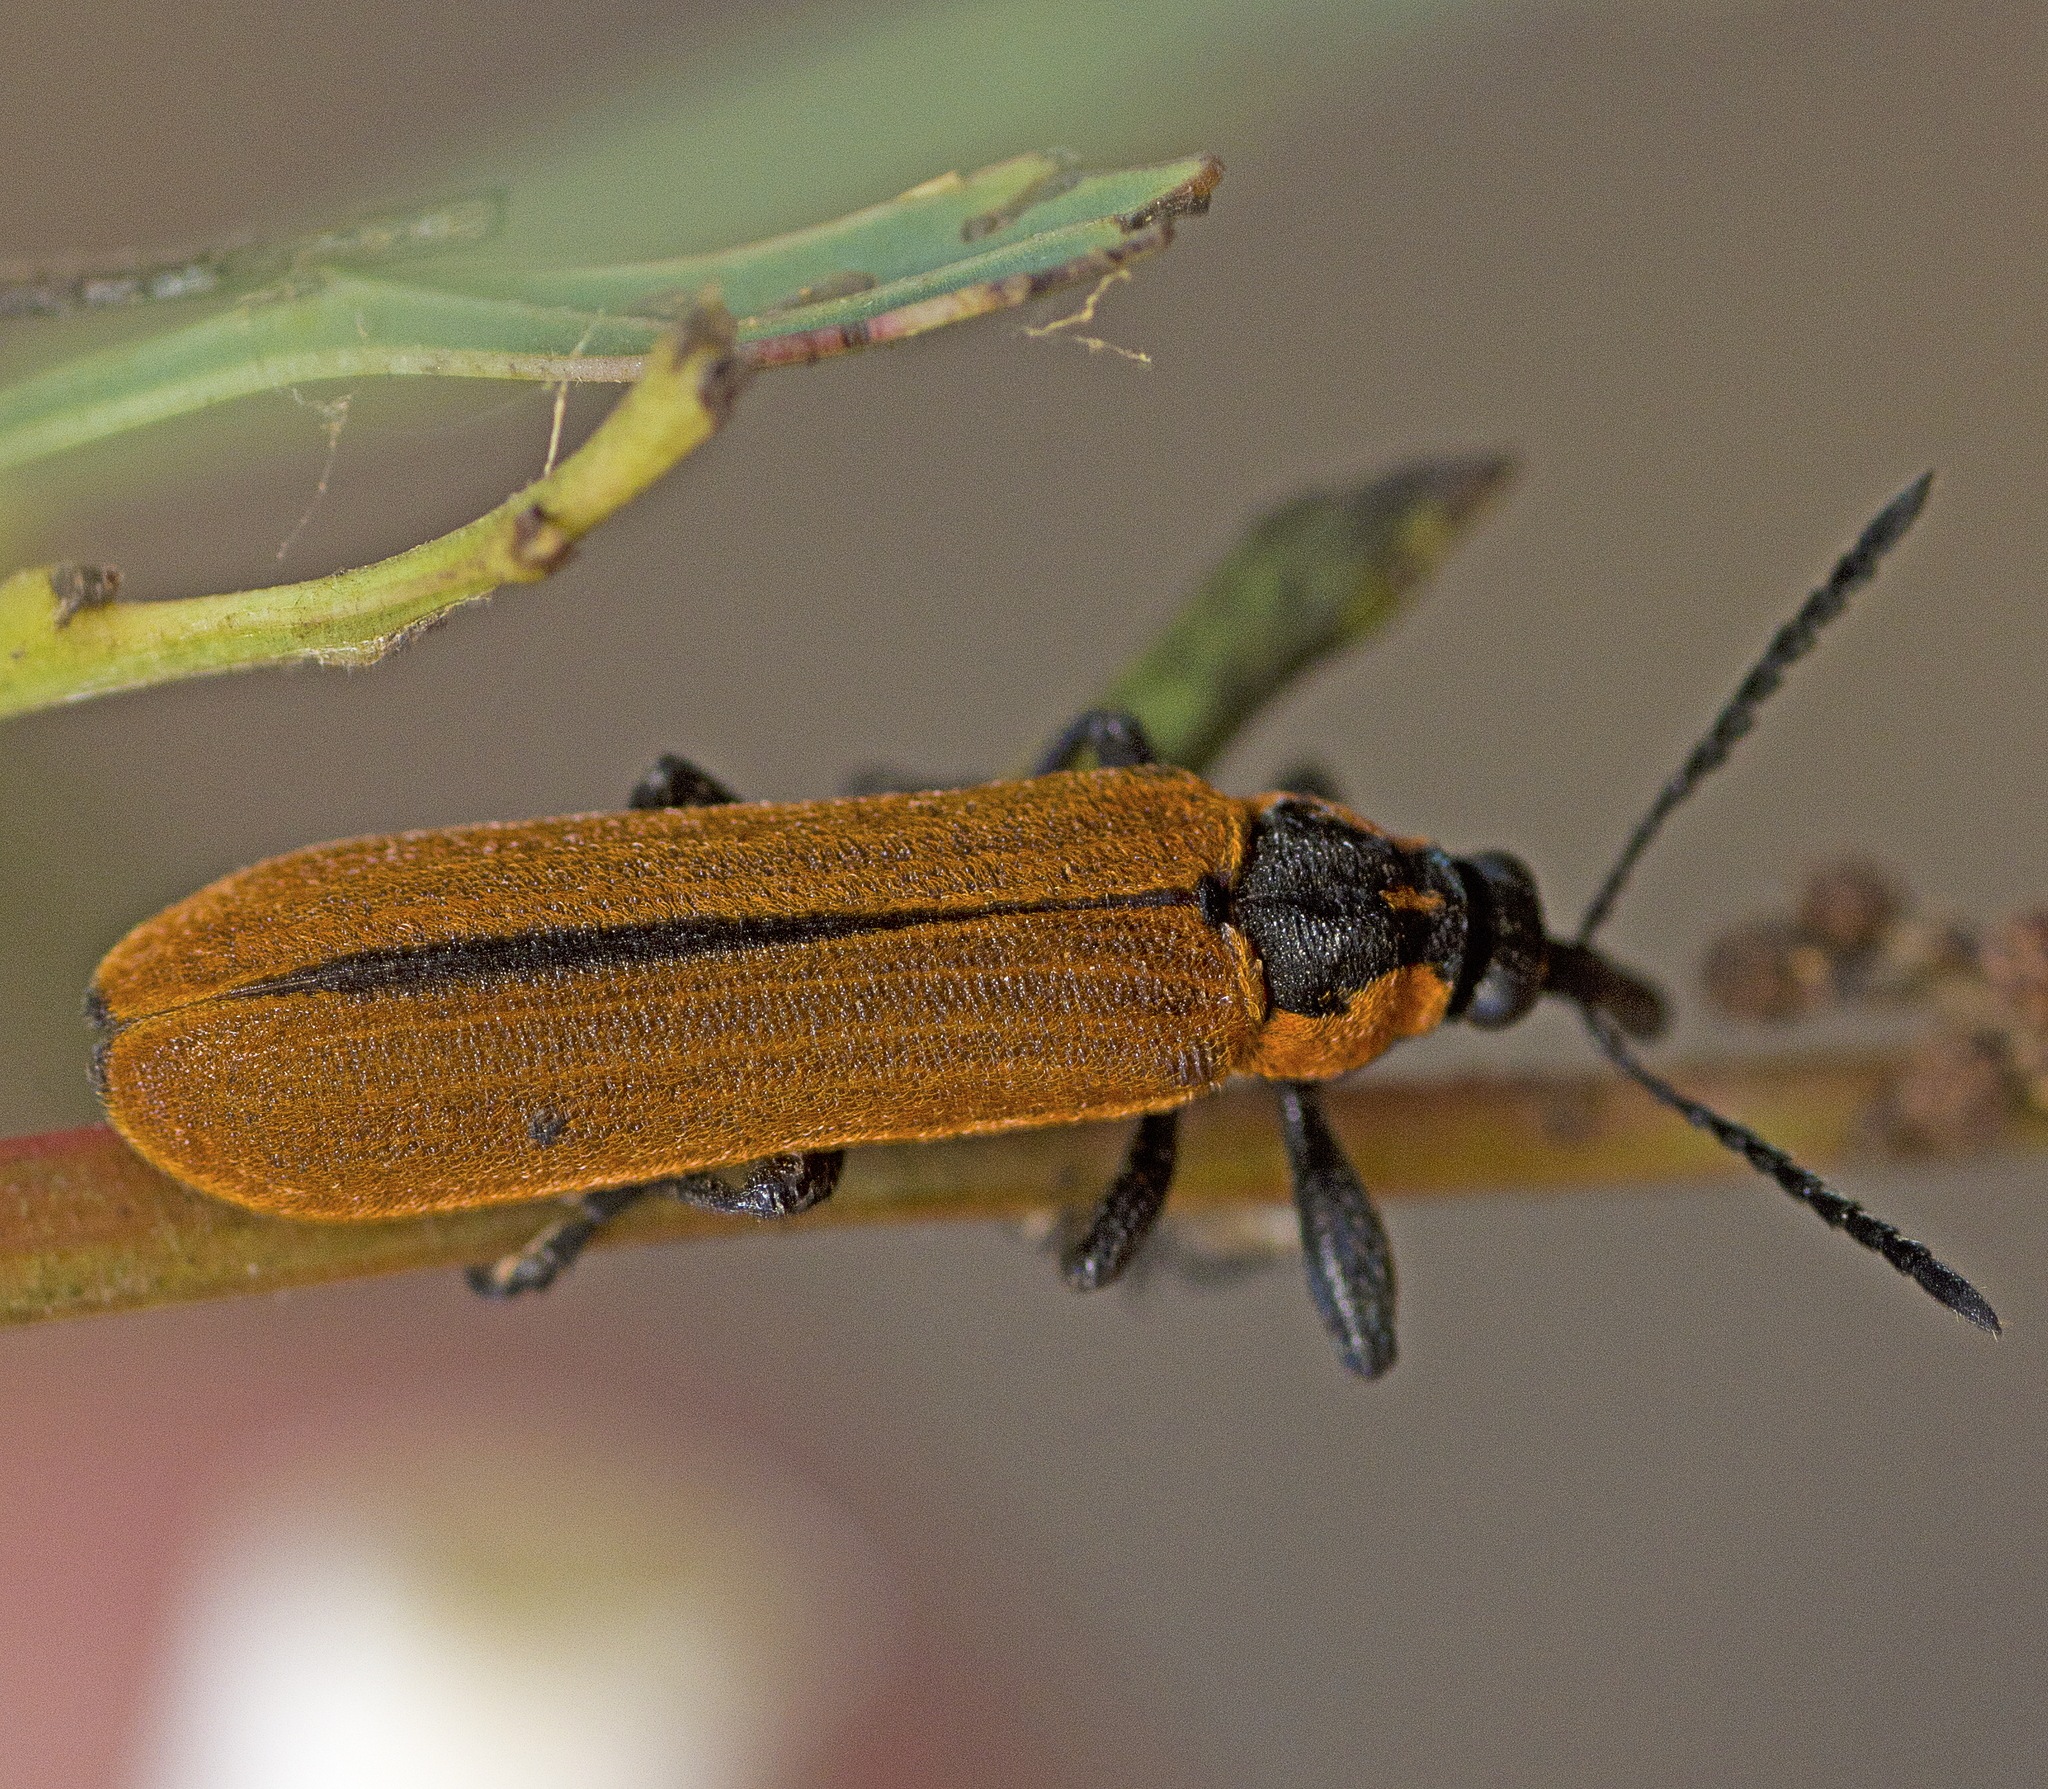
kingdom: Animalia
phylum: Arthropoda
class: Insecta
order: Coleoptera
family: Belidae
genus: Rhinotia
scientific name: Rhinotia haemoptera
